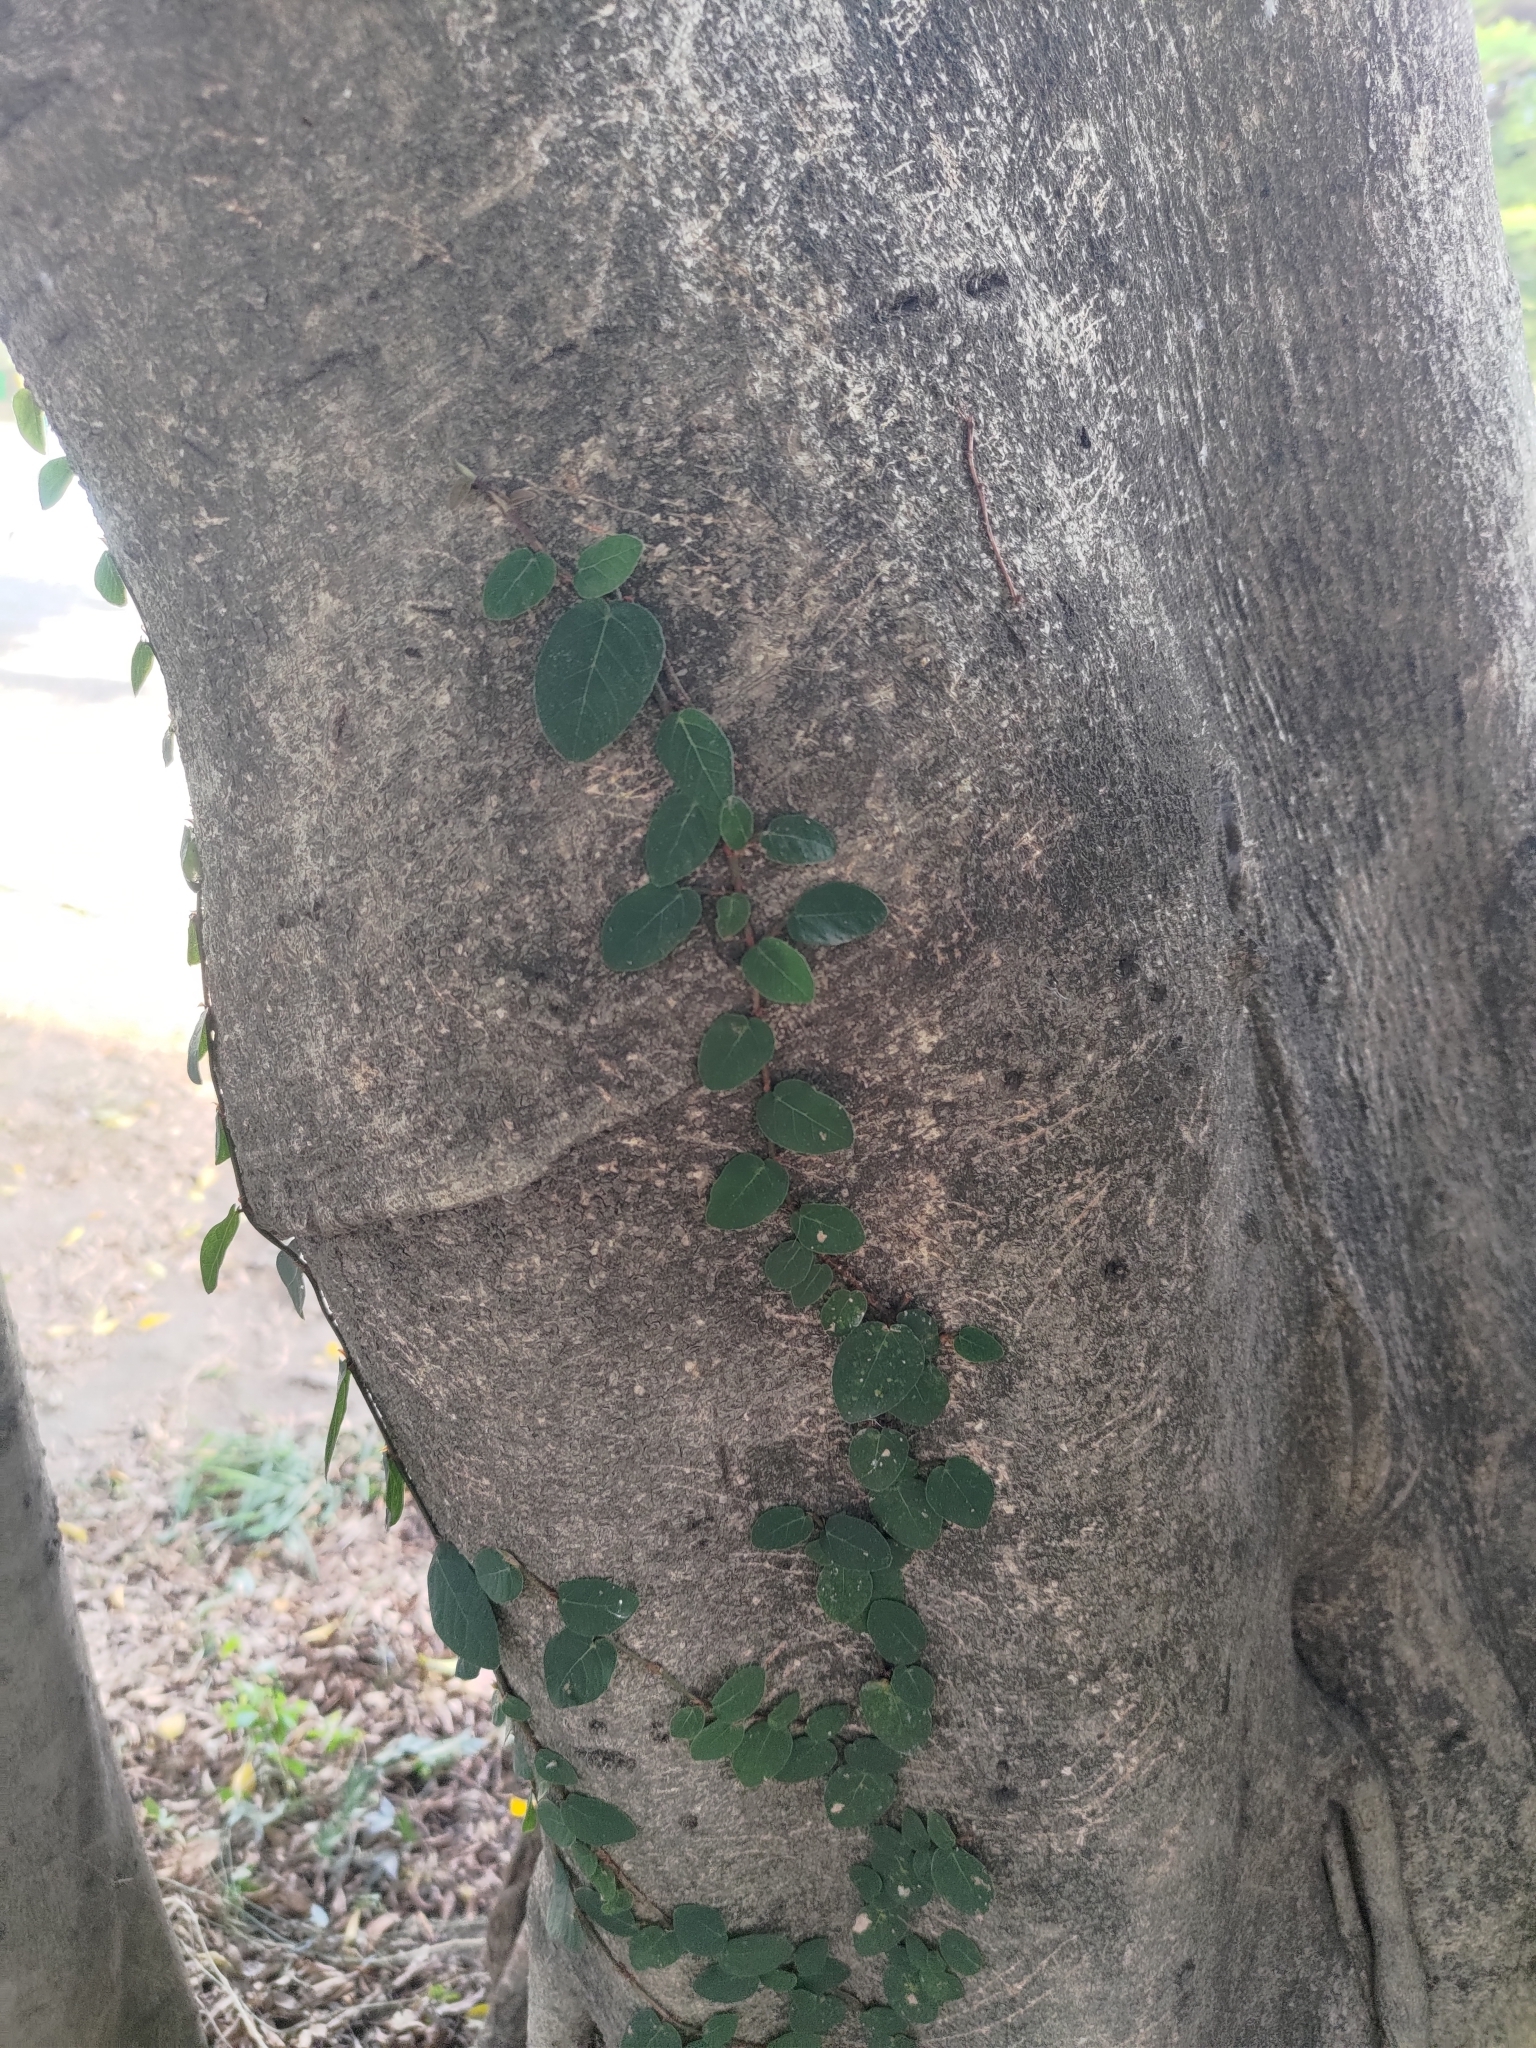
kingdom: Plantae
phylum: Tracheophyta
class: Magnoliopsida
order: Rosales
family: Moraceae
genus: Ficus
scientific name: Ficus pumila
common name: Climbingfig
